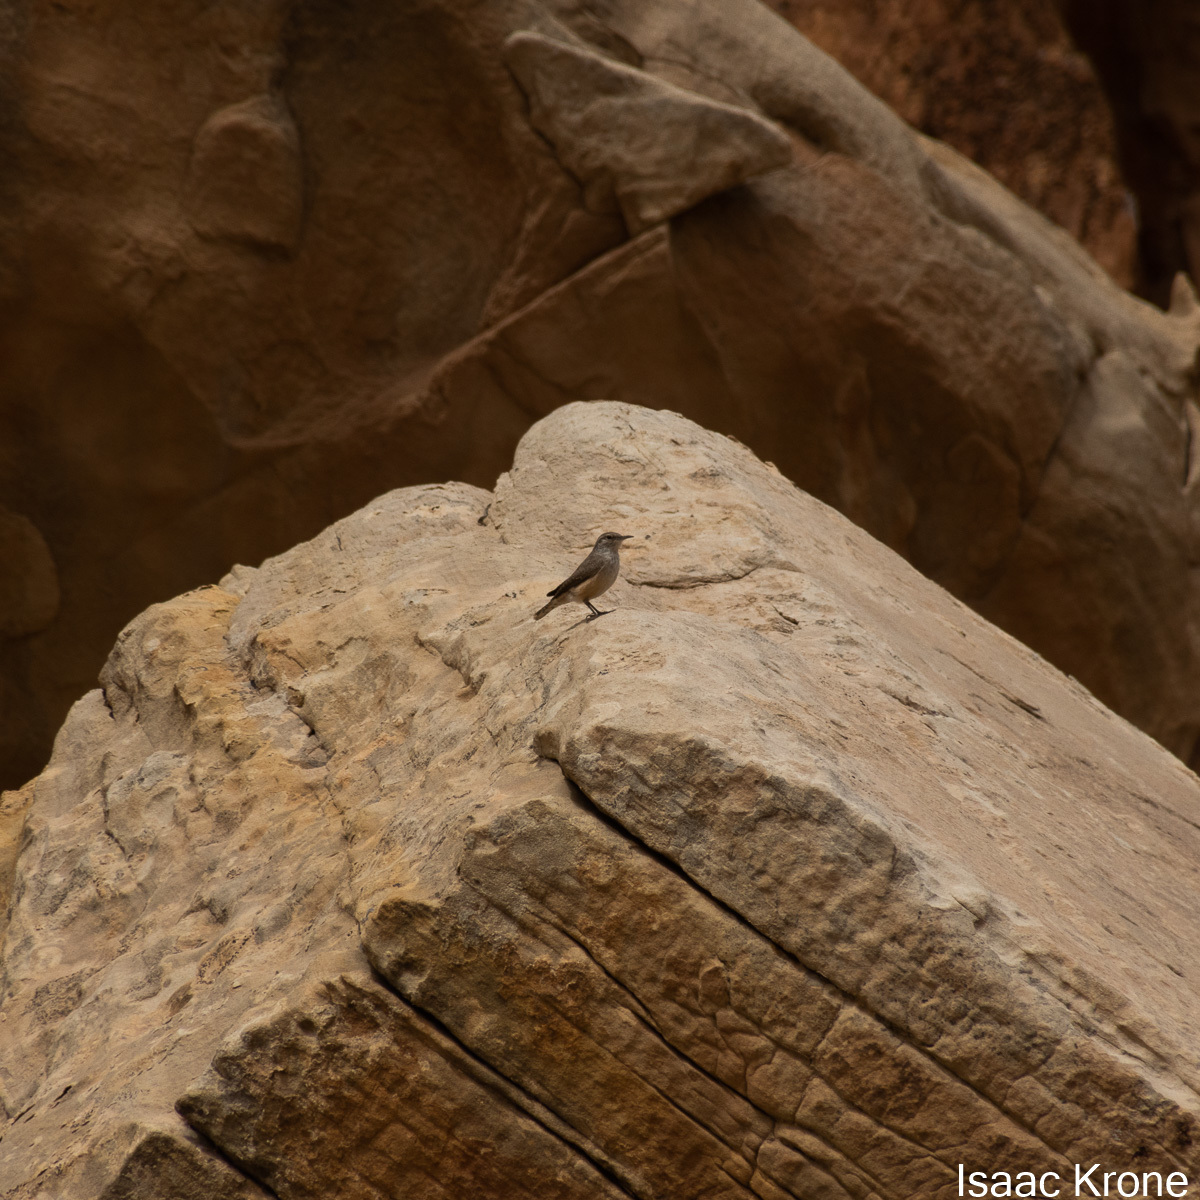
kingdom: Animalia
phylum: Chordata
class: Aves
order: Passeriformes
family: Troglodytidae
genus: Salpinctes
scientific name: Salpinctes obsoletus
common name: Rock wren
